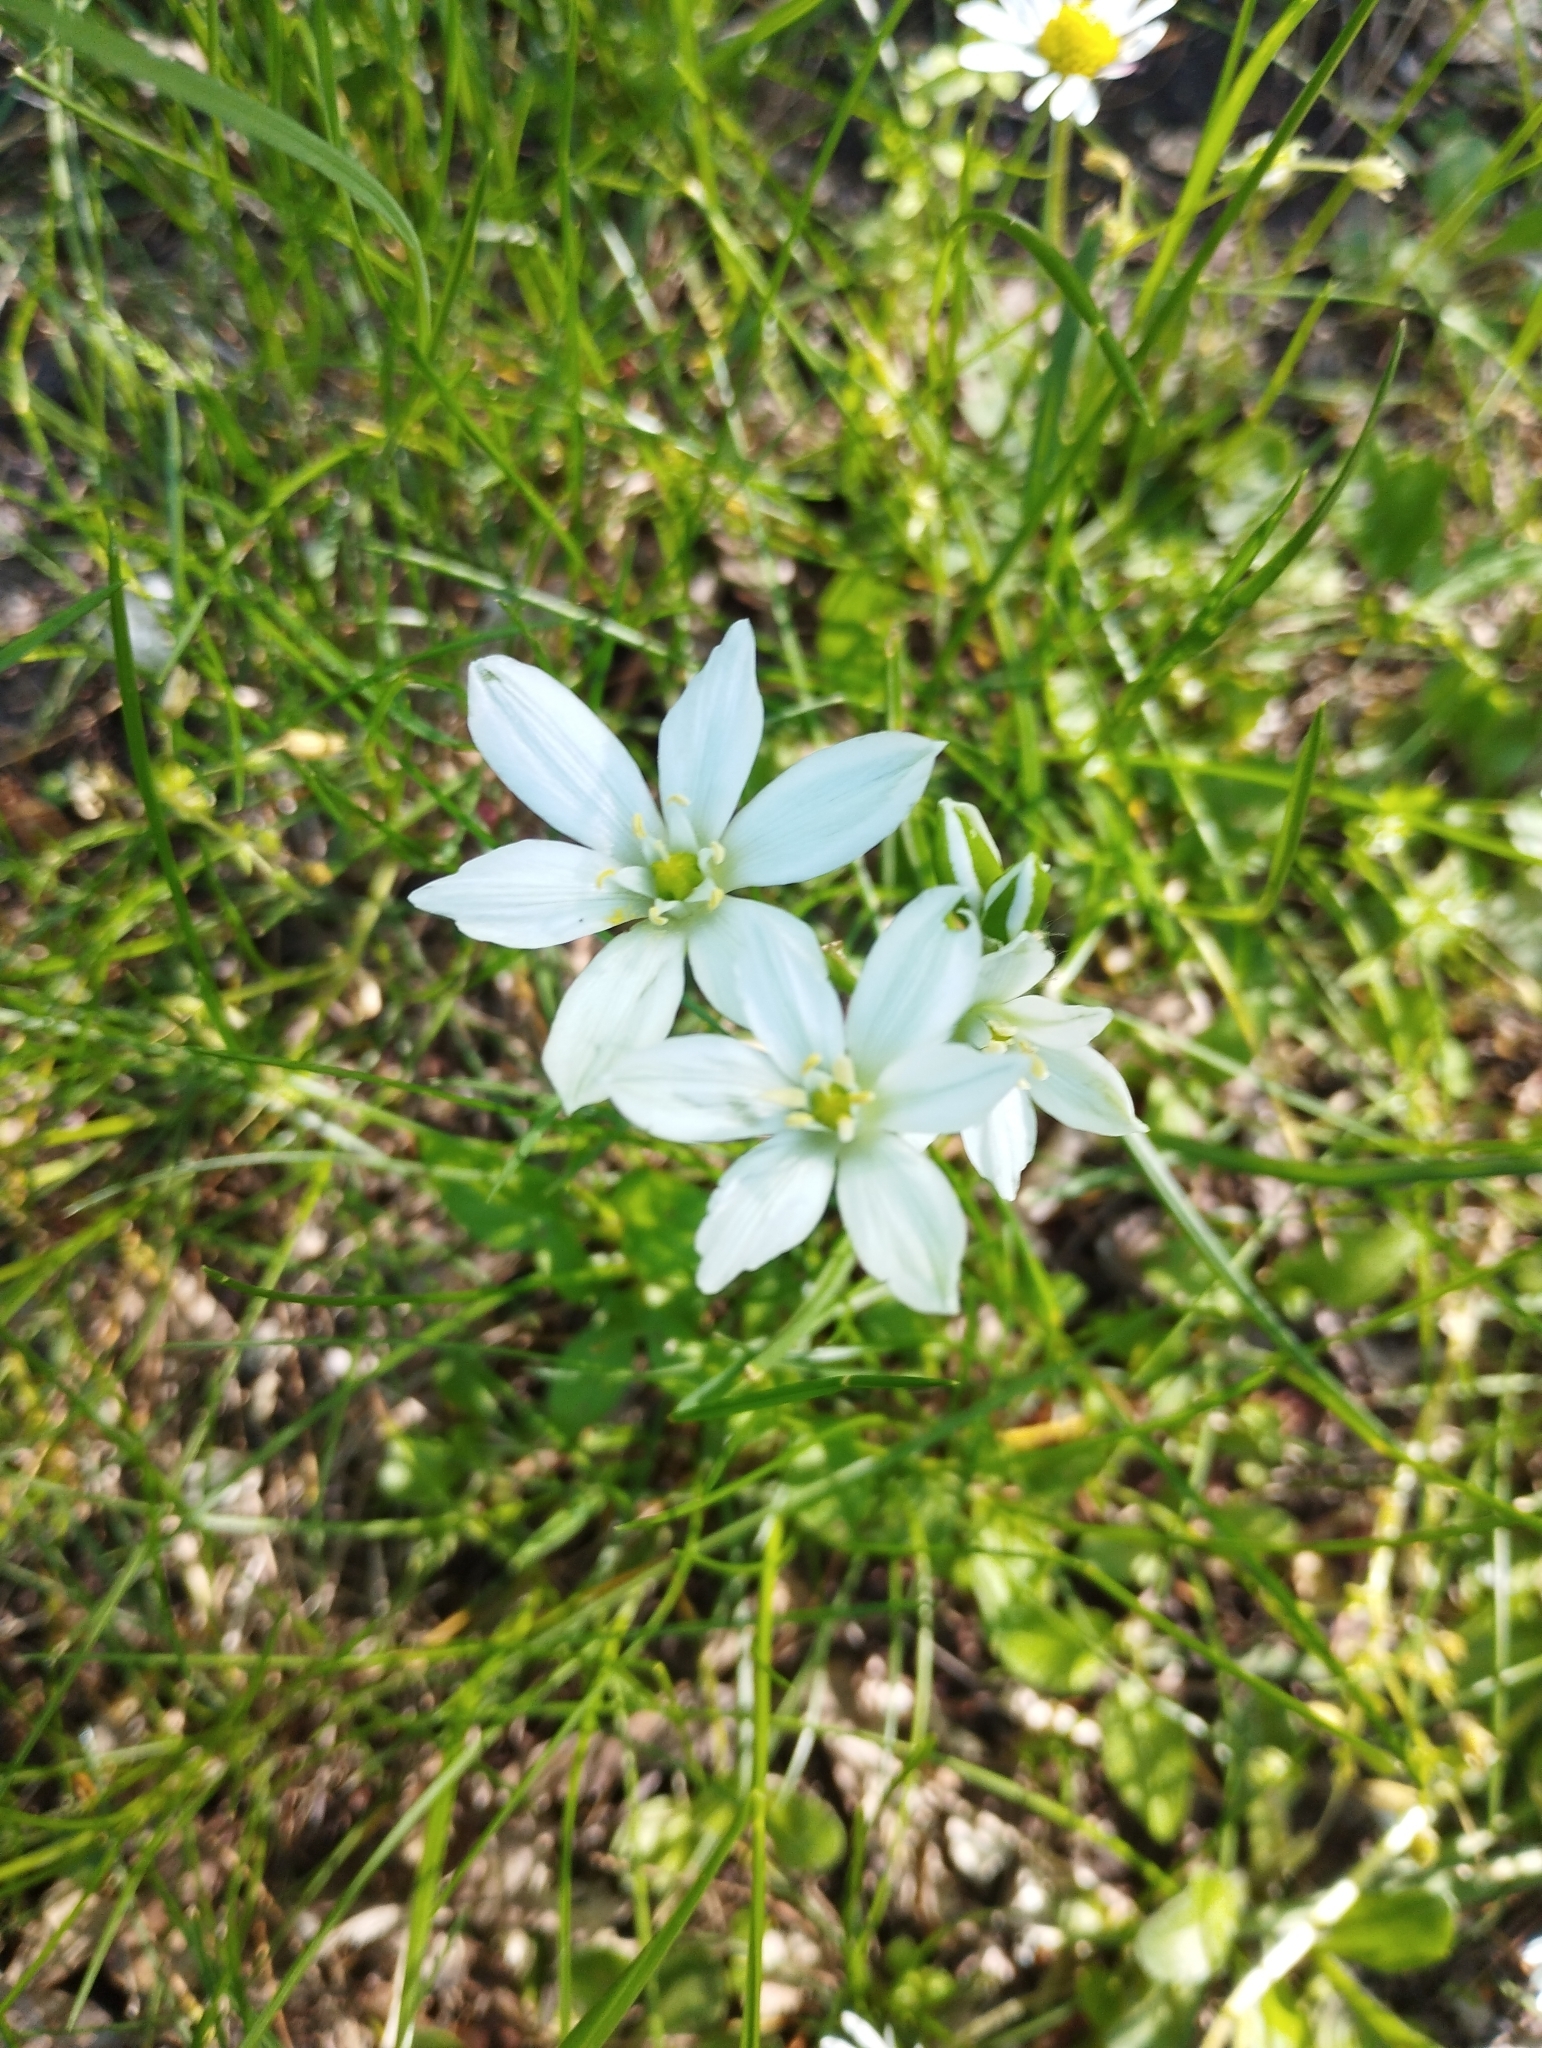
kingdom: Plantae
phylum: Tracheophyta
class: Liliopsida
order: Asparagales
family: Asparagaceae
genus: Ornithogalum
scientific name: Ornithogalum orthophyllum
